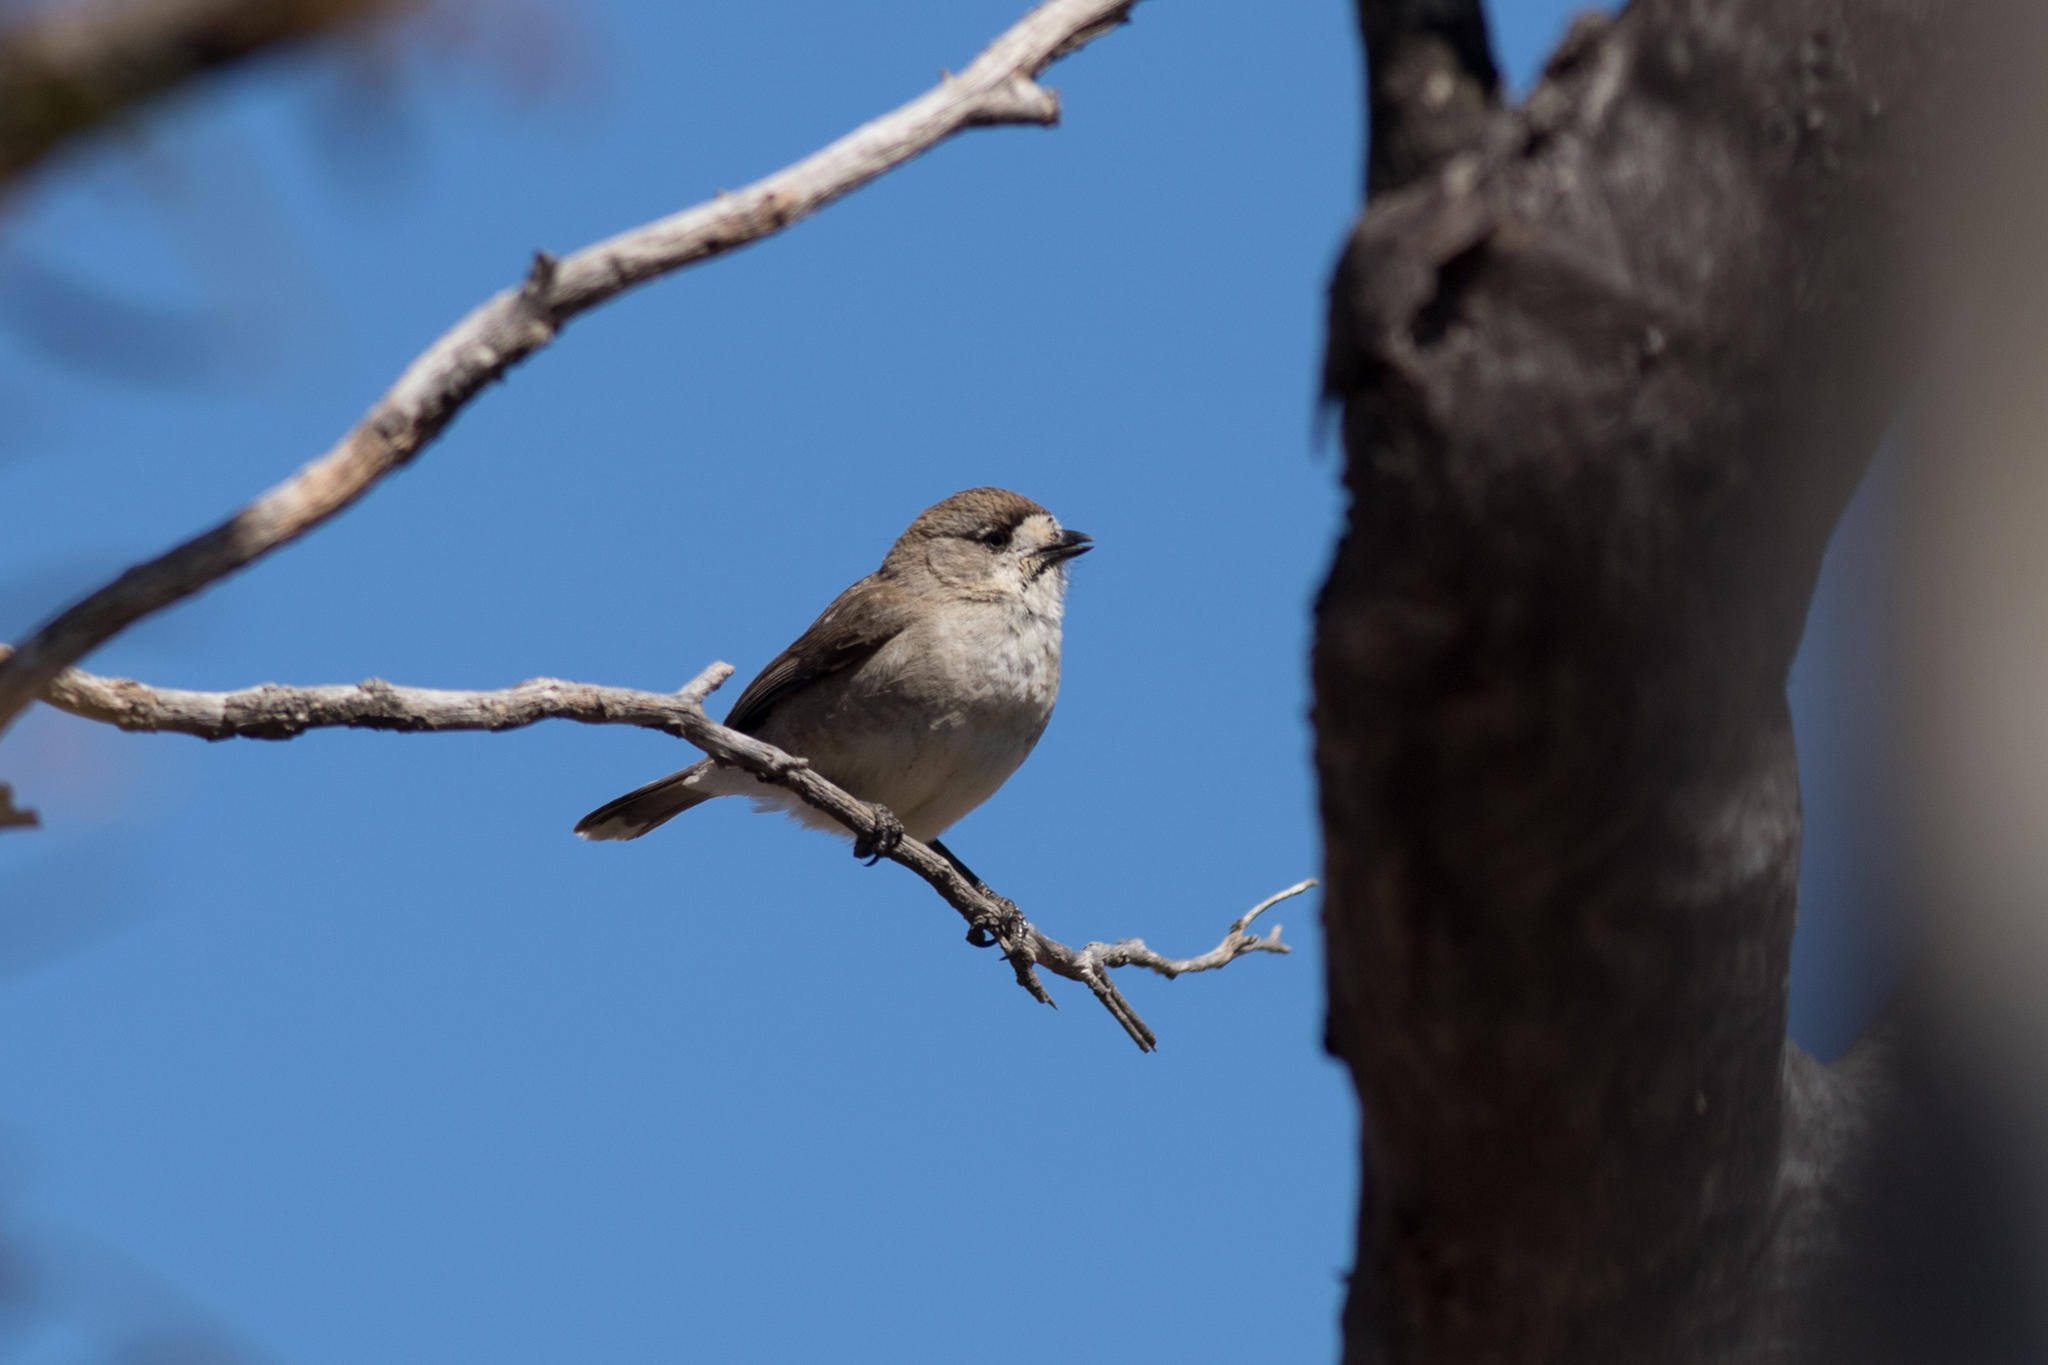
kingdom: Animalia
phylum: Chordata
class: Aves
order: Passeriformes
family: Acanthizidae
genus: Aphelocephala
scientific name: Aphelocephala leucopsis
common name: Southern whiteface
